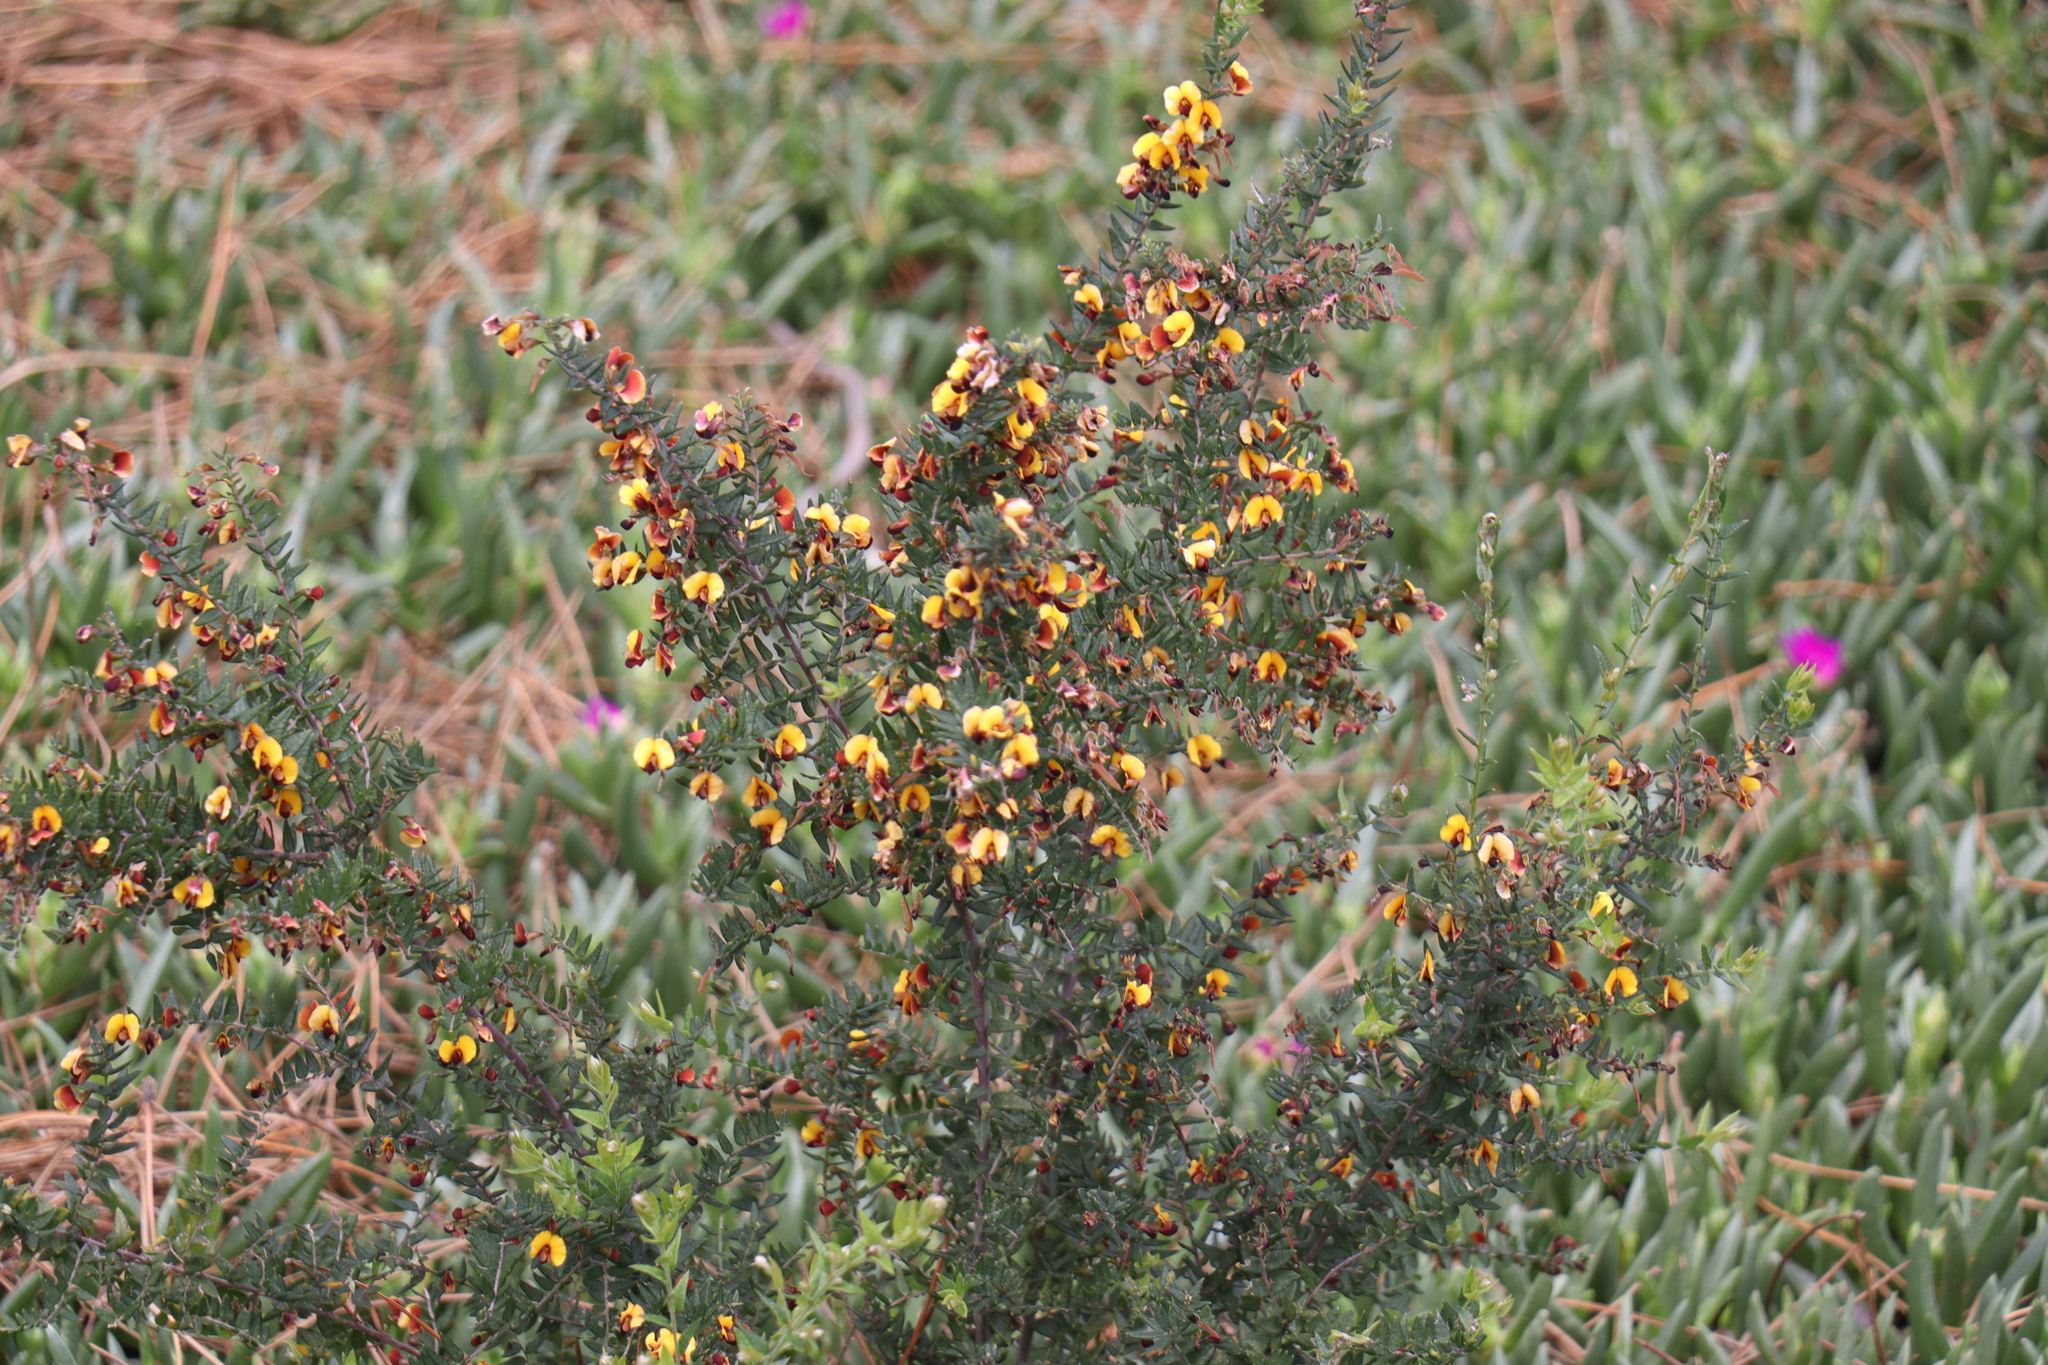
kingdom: Plantae
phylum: Tracheophyta
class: Magnoliopsida
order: Fabales
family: Fabaceae
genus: Bossiaea
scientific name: Bossiaea cinerea
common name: Showy bossiaea
